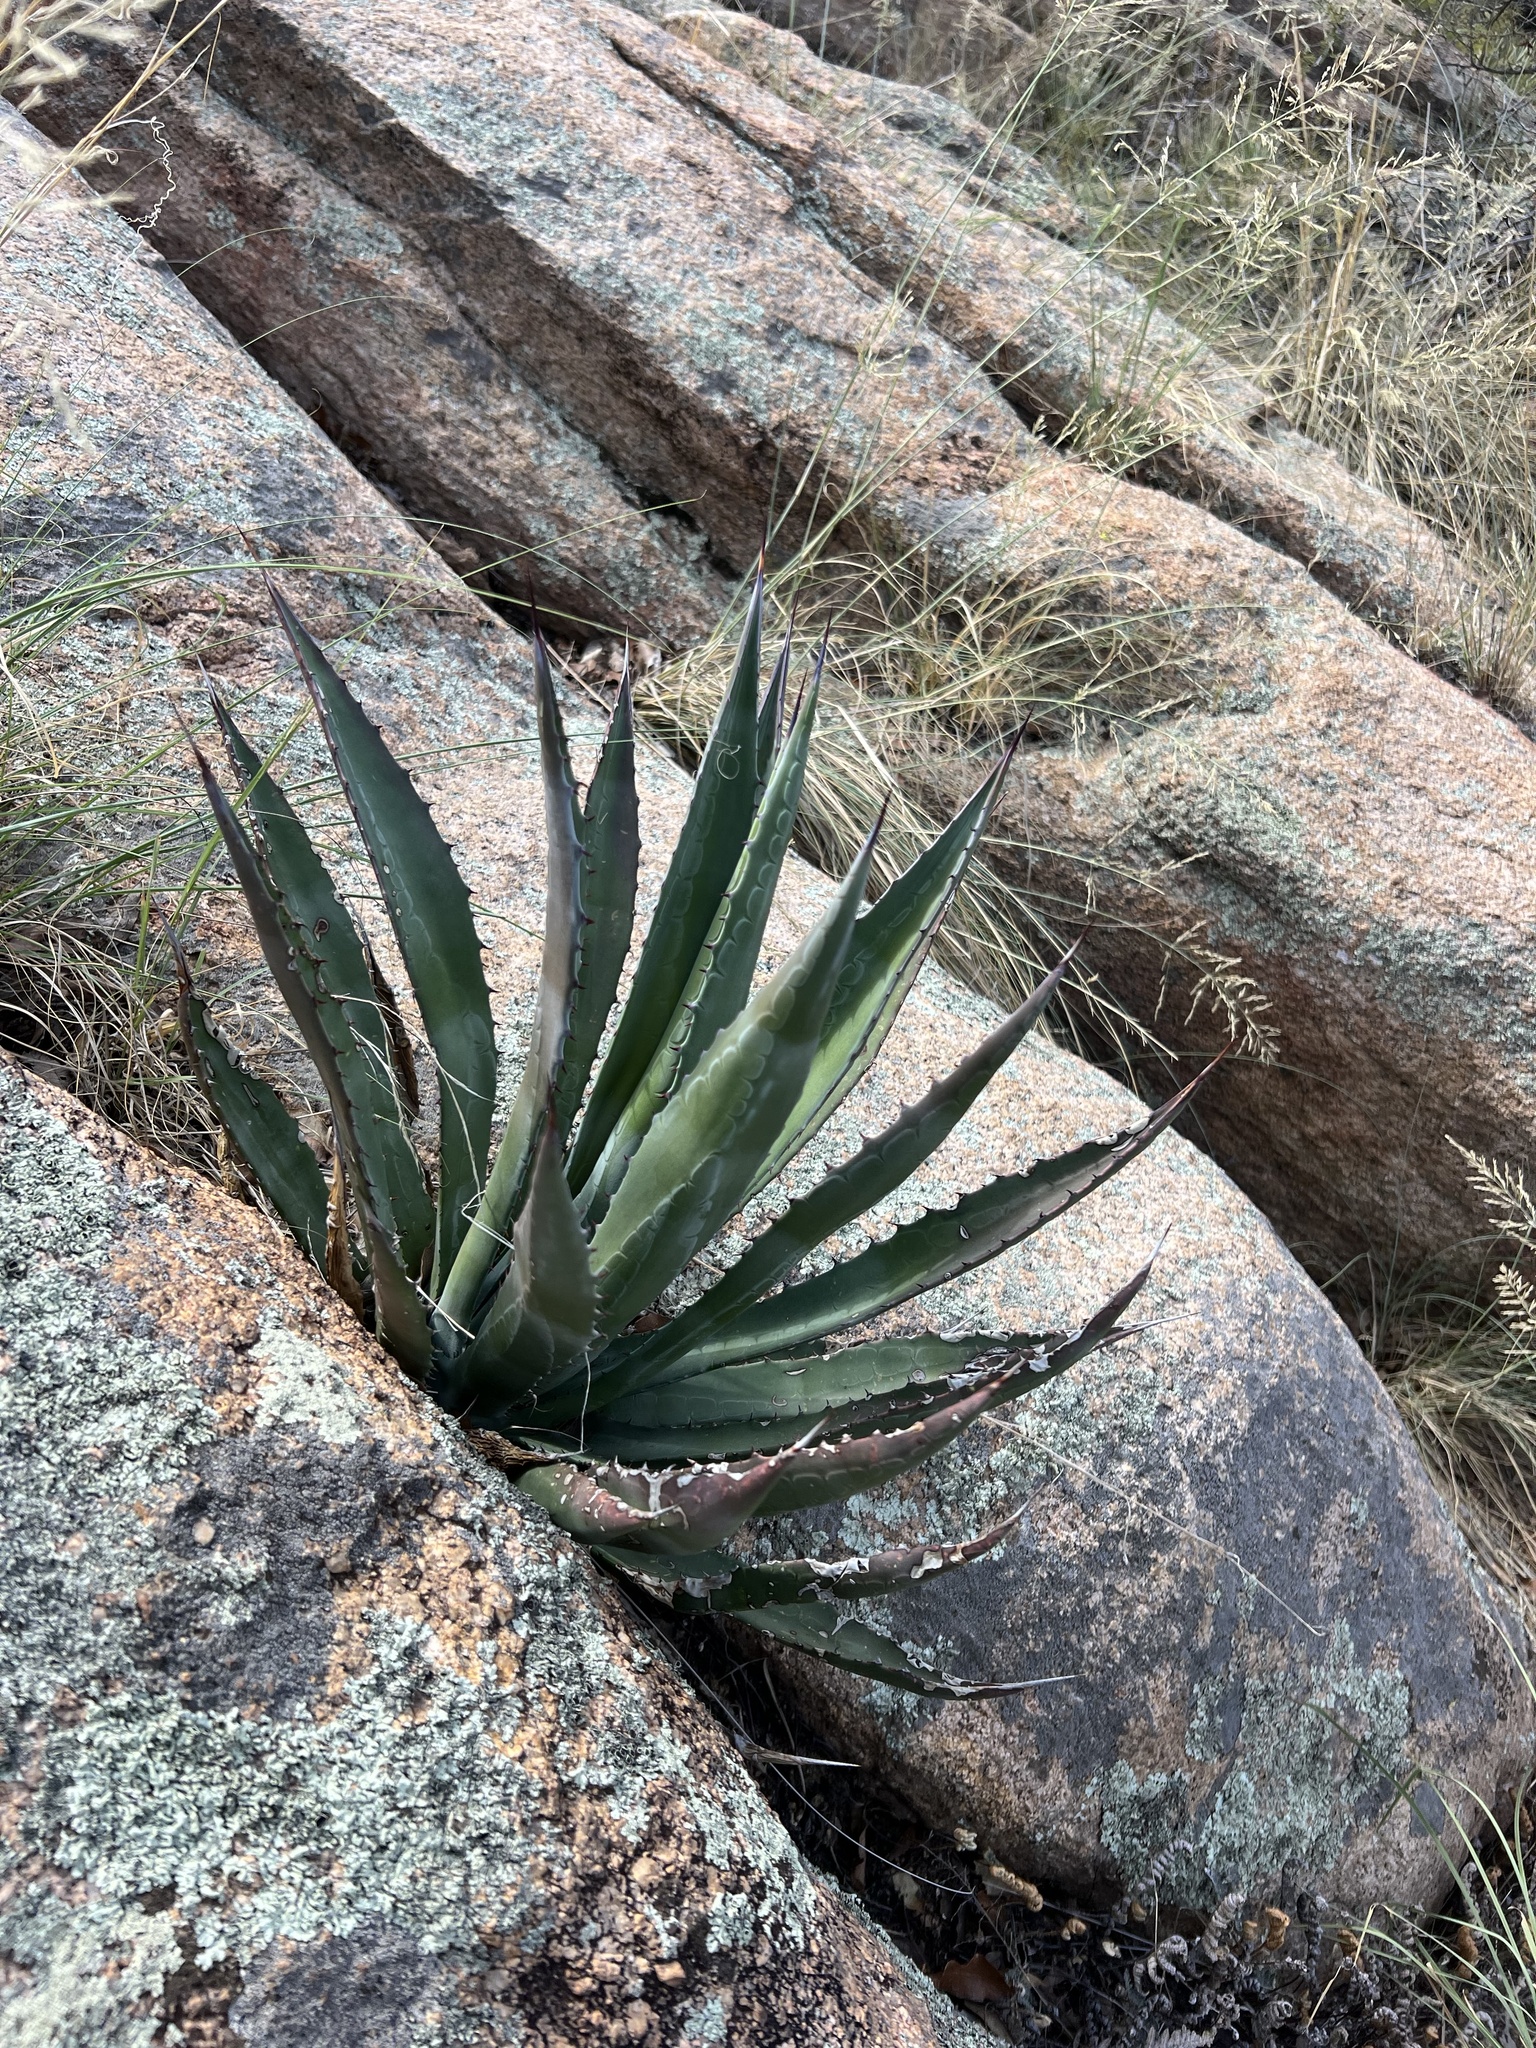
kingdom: Plantae
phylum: Tracheophyta
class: Liliopsida
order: Asparagales
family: Asparagaceae
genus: Agave
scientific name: Agave palmeri
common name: Palmer agave
